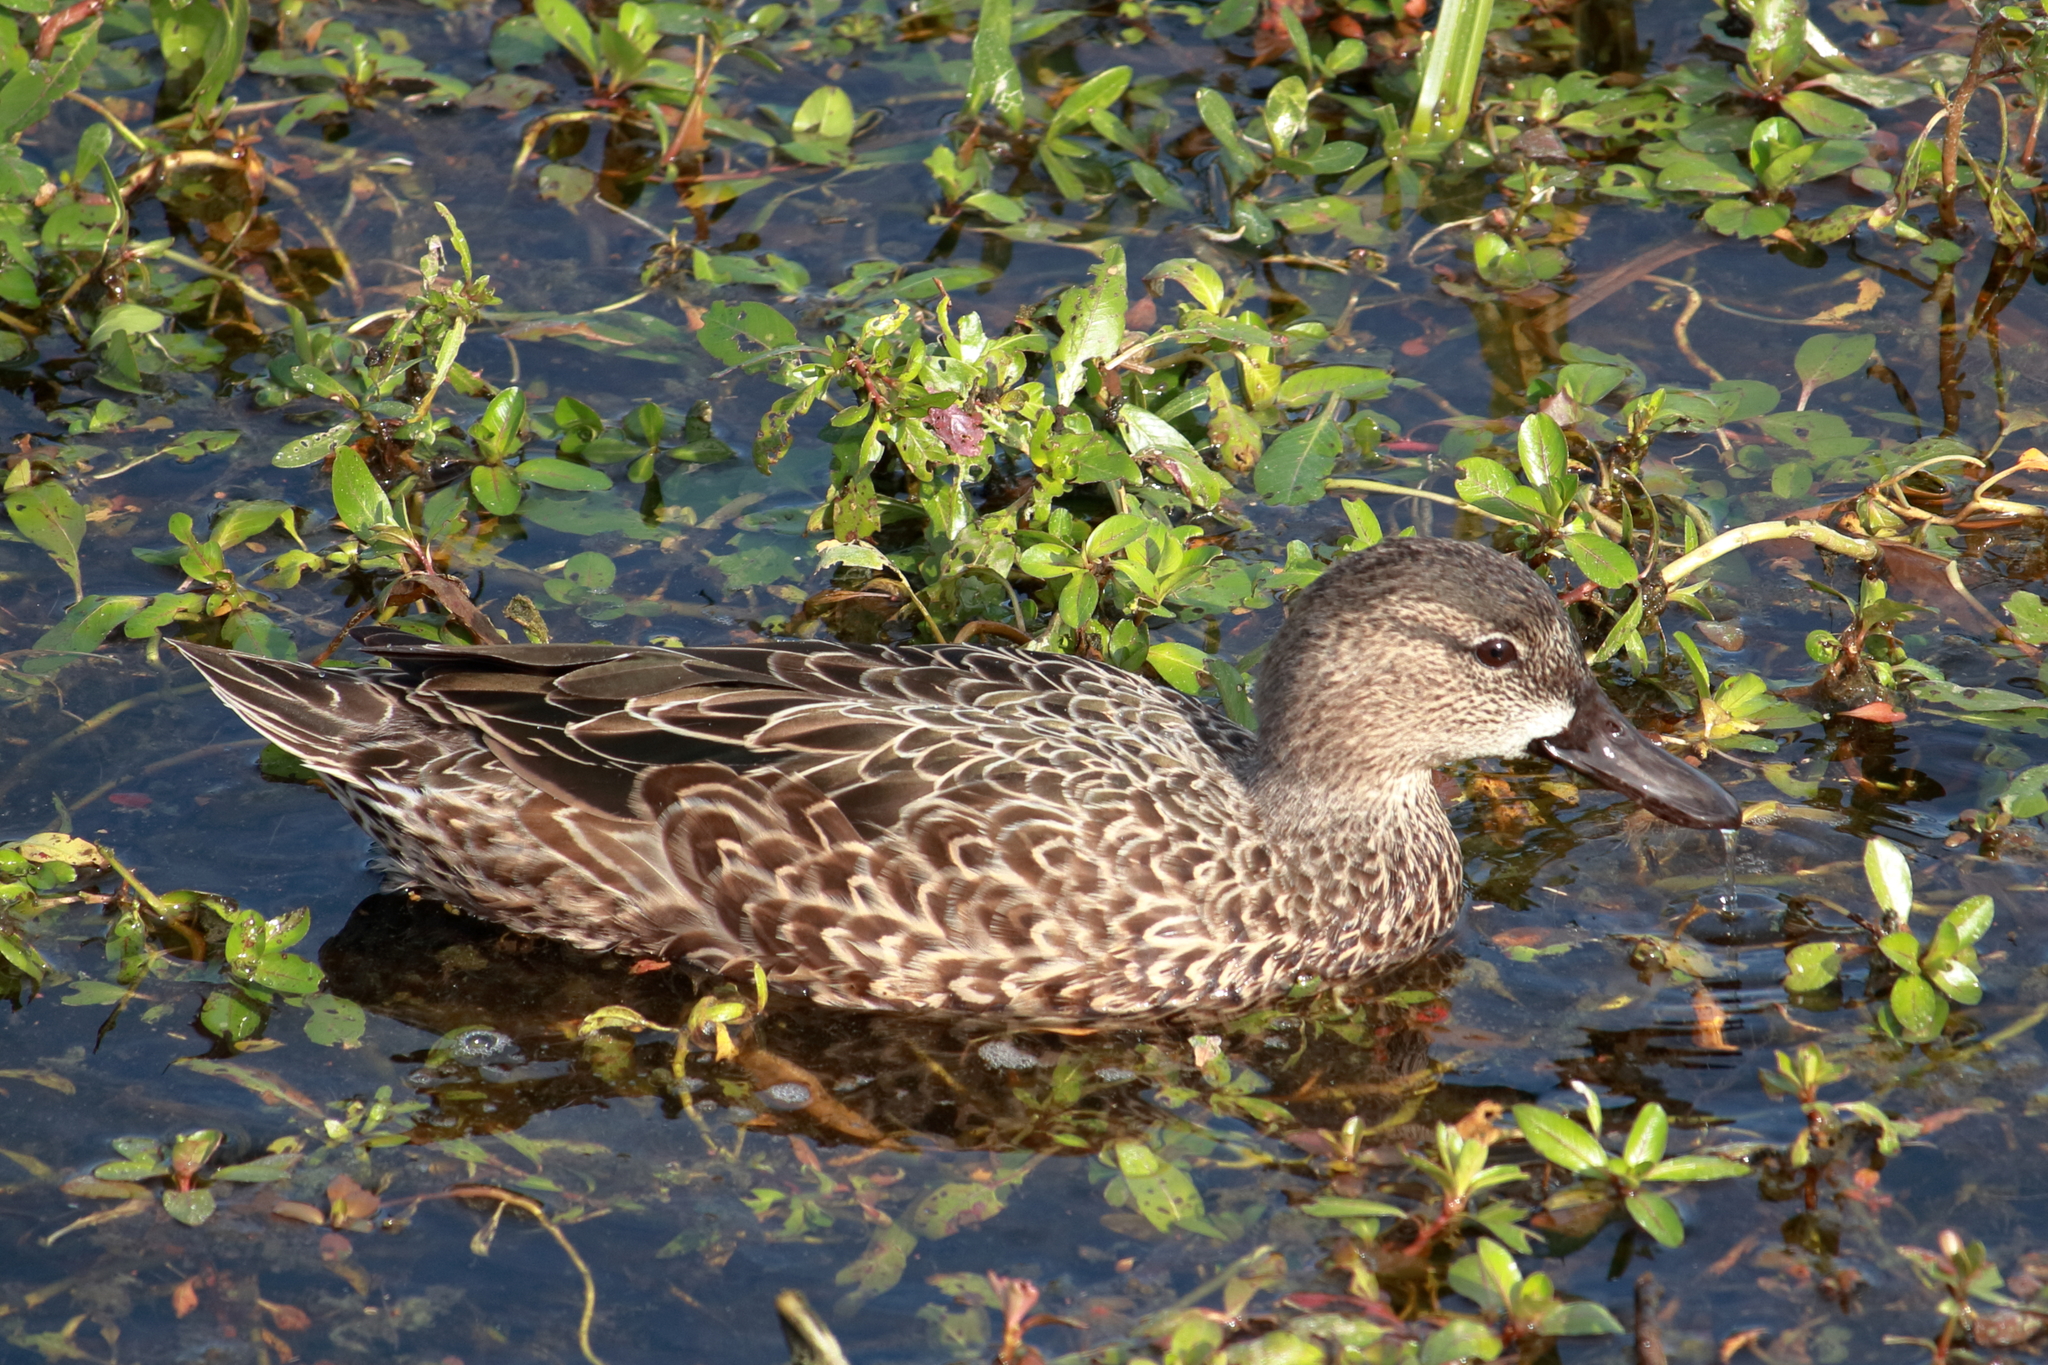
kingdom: Animalia
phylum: Chordata
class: Aves
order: Anseriformes
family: Anatidae
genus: Spatula
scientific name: Spatula discors
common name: Blue-winged teal
